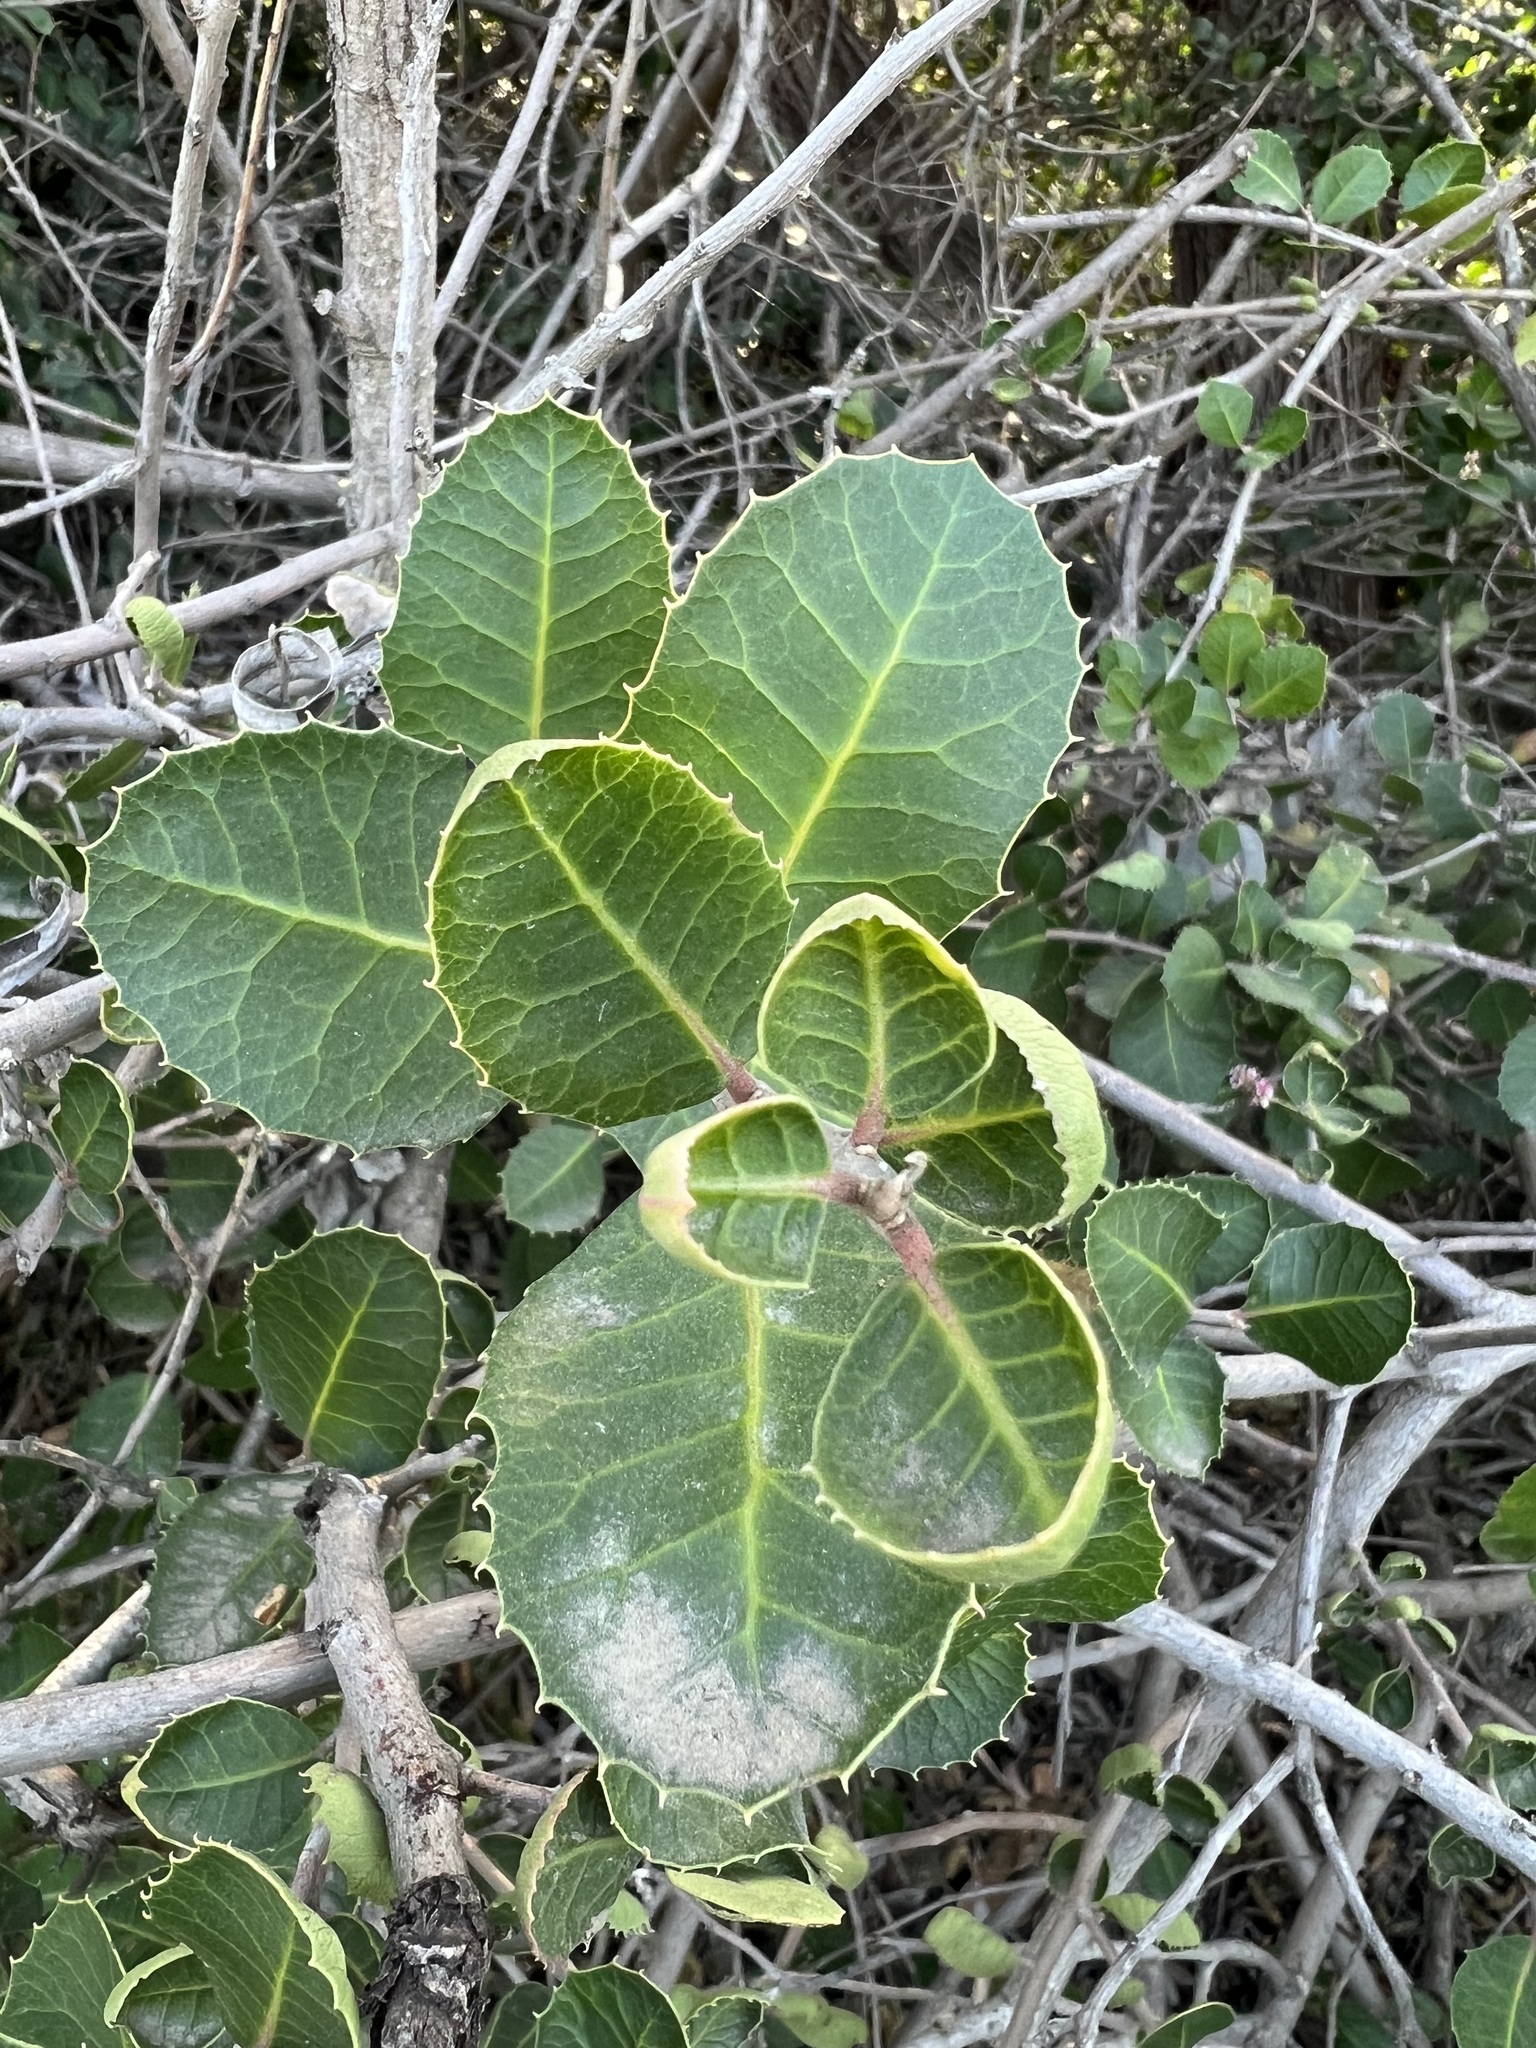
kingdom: Plantae
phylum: Tracheophyta
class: Magnoliopsida
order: Sapindales
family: Anacardiaceae
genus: Rhus
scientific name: Rhus integrifolia
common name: Lemonade sumac
